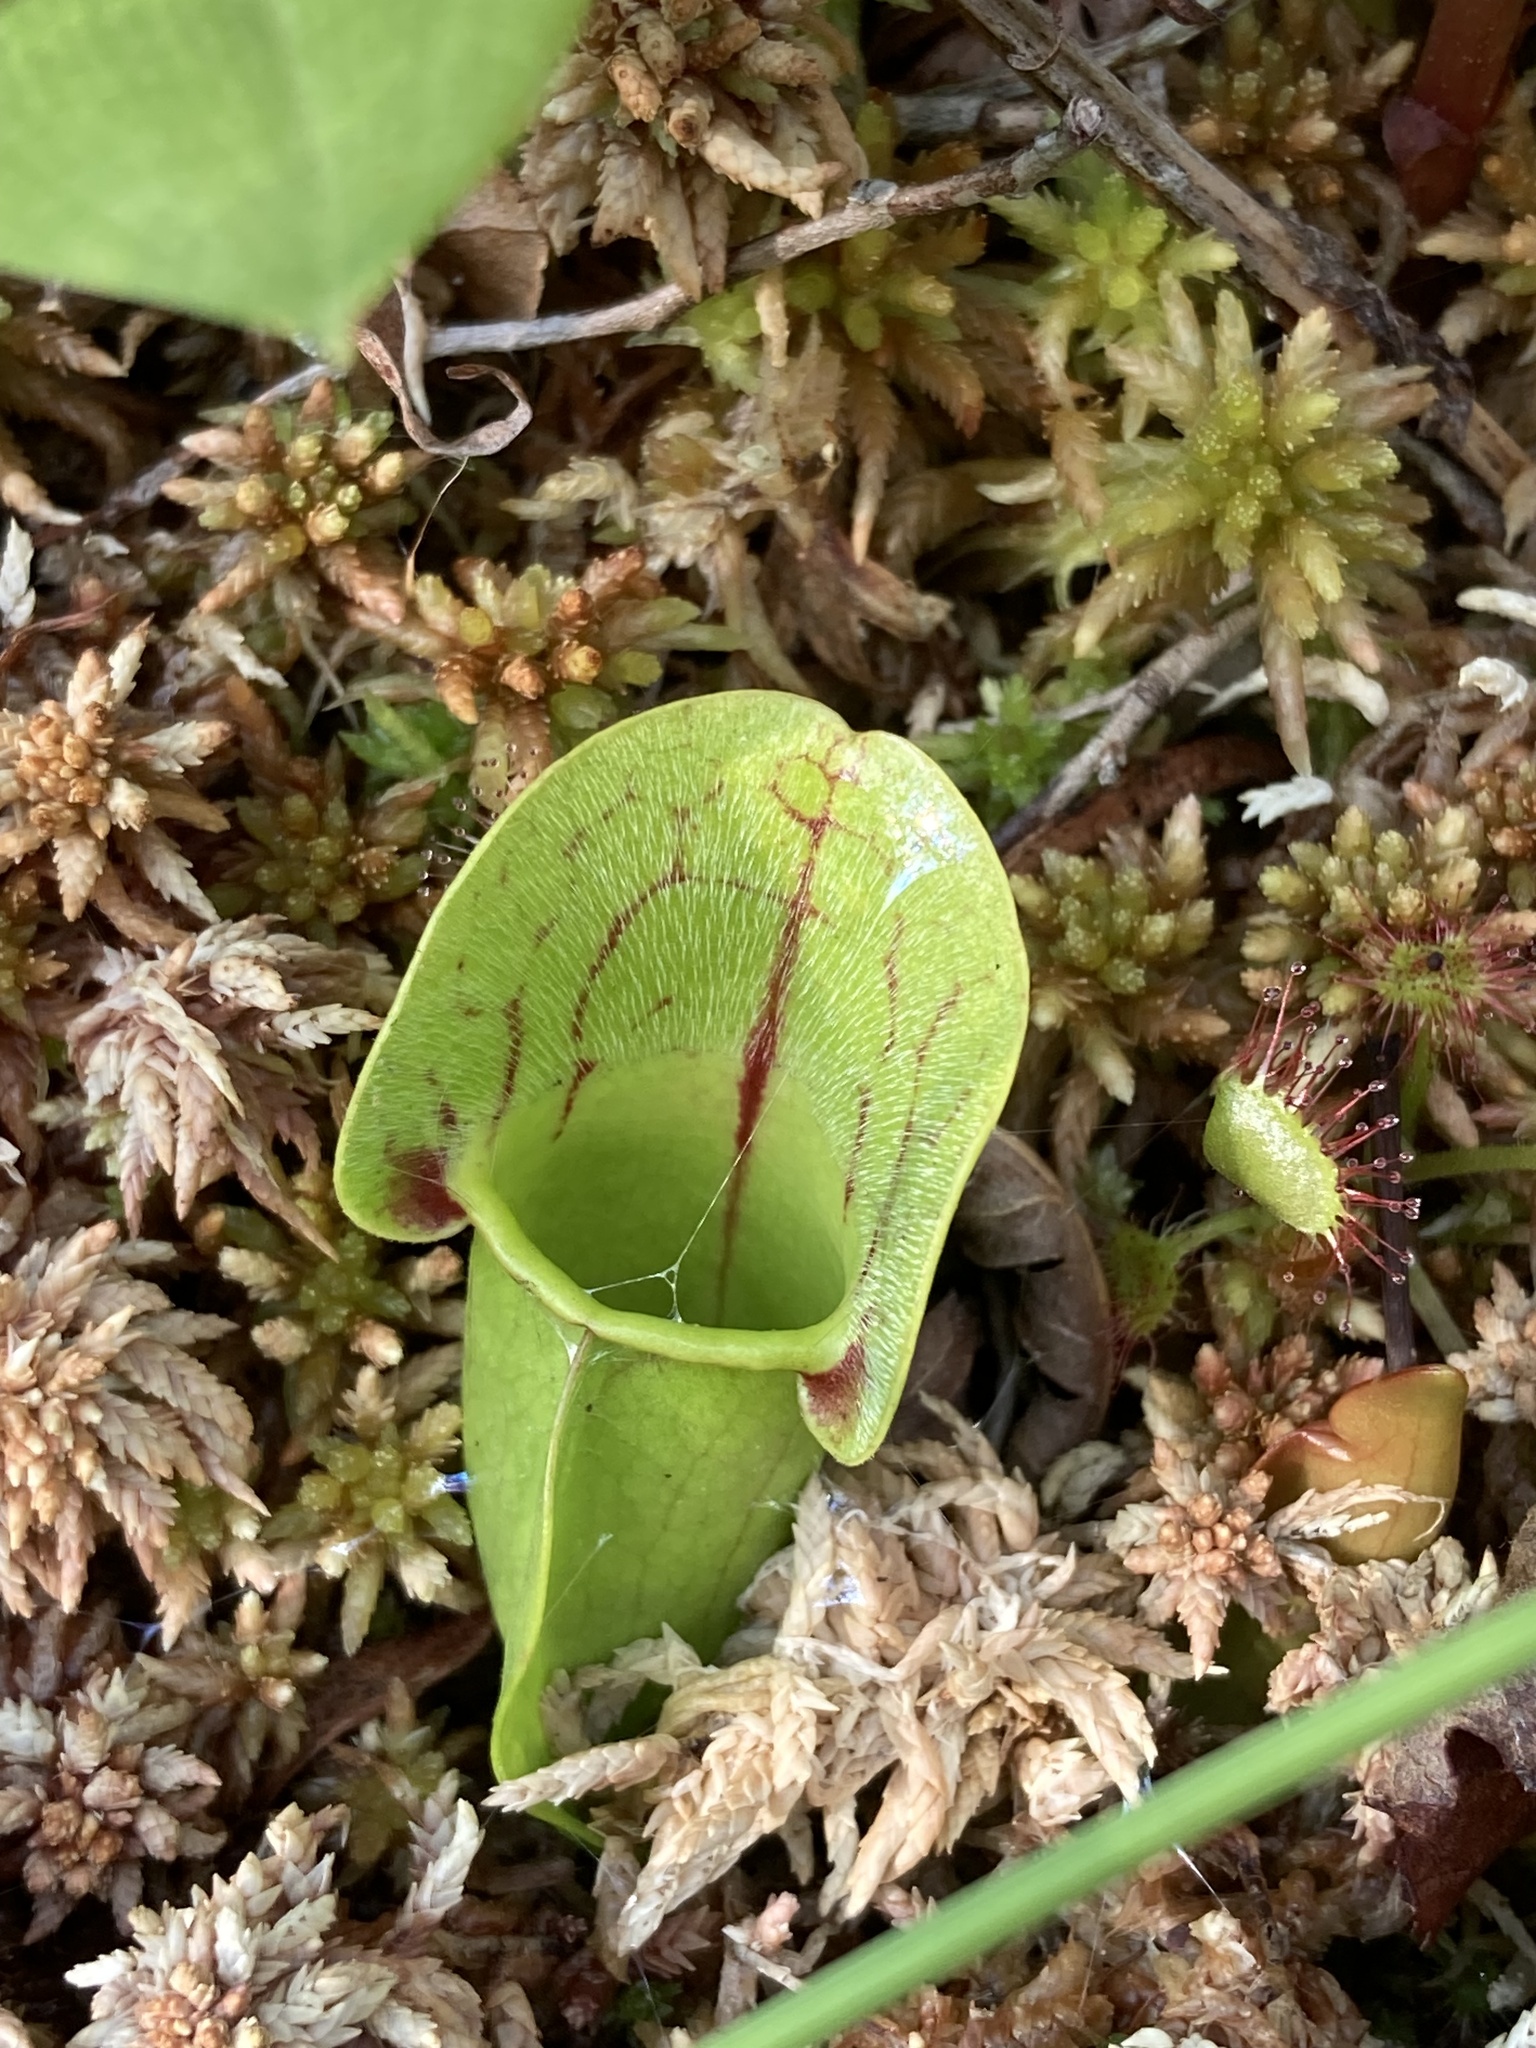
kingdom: Plantae
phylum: Tracheophyta
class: Magnoliopsida
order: Ericales
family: Sarraceniaceae
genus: Sarracenia
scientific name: Sarracenia purpurea
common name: Pitcherplant
